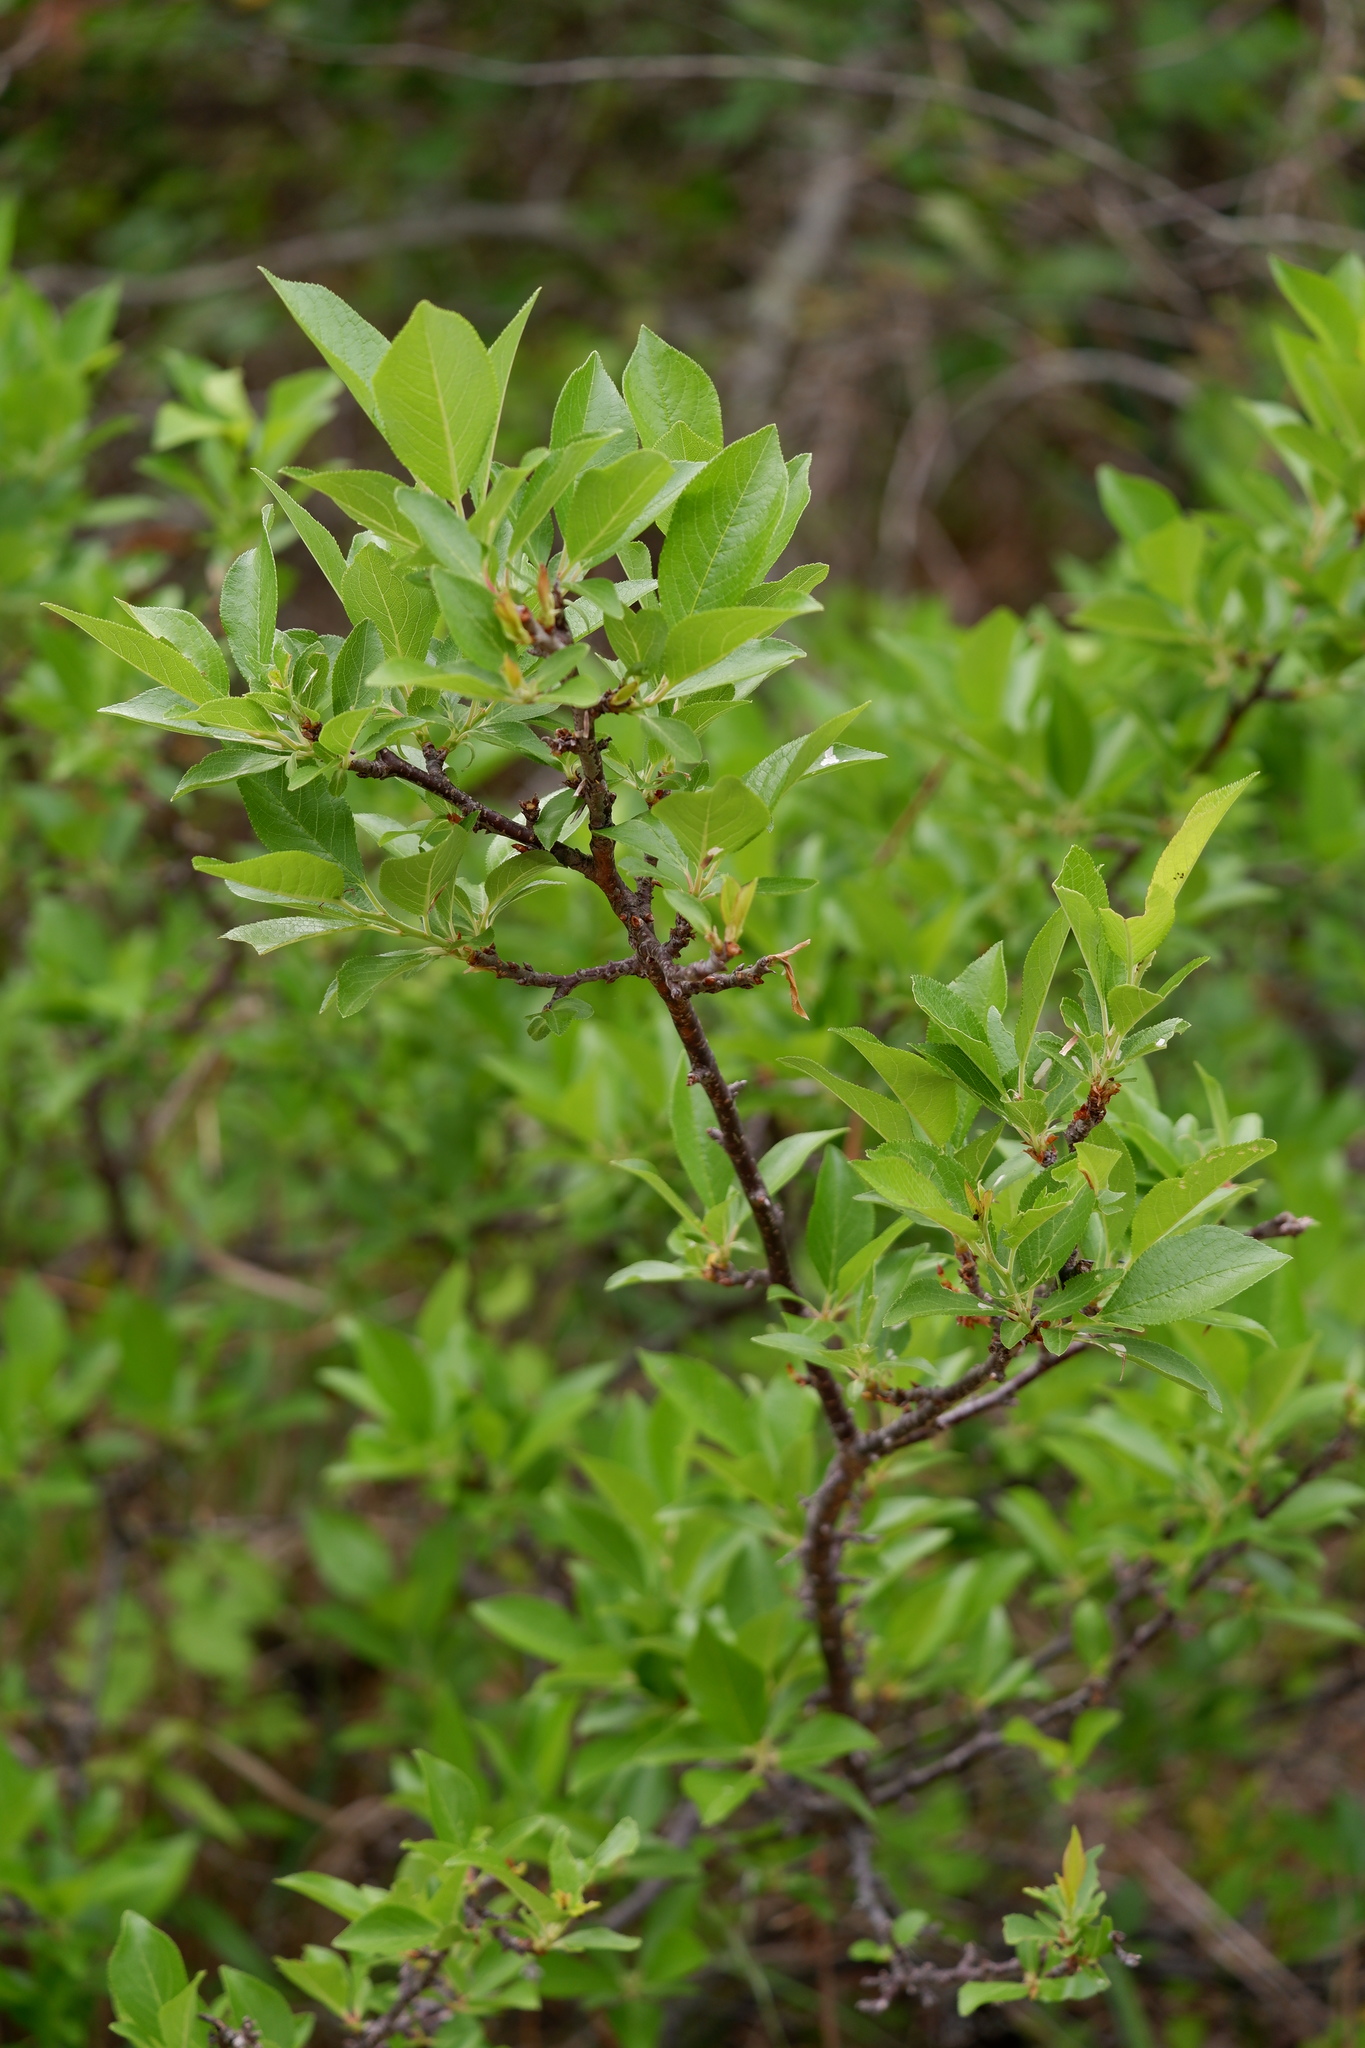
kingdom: Plantae
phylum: Tracheophyta
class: Magnoliopsida
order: Rosales
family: Rosaceae
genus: Prunus
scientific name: Prunus maritima
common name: Beach plum
